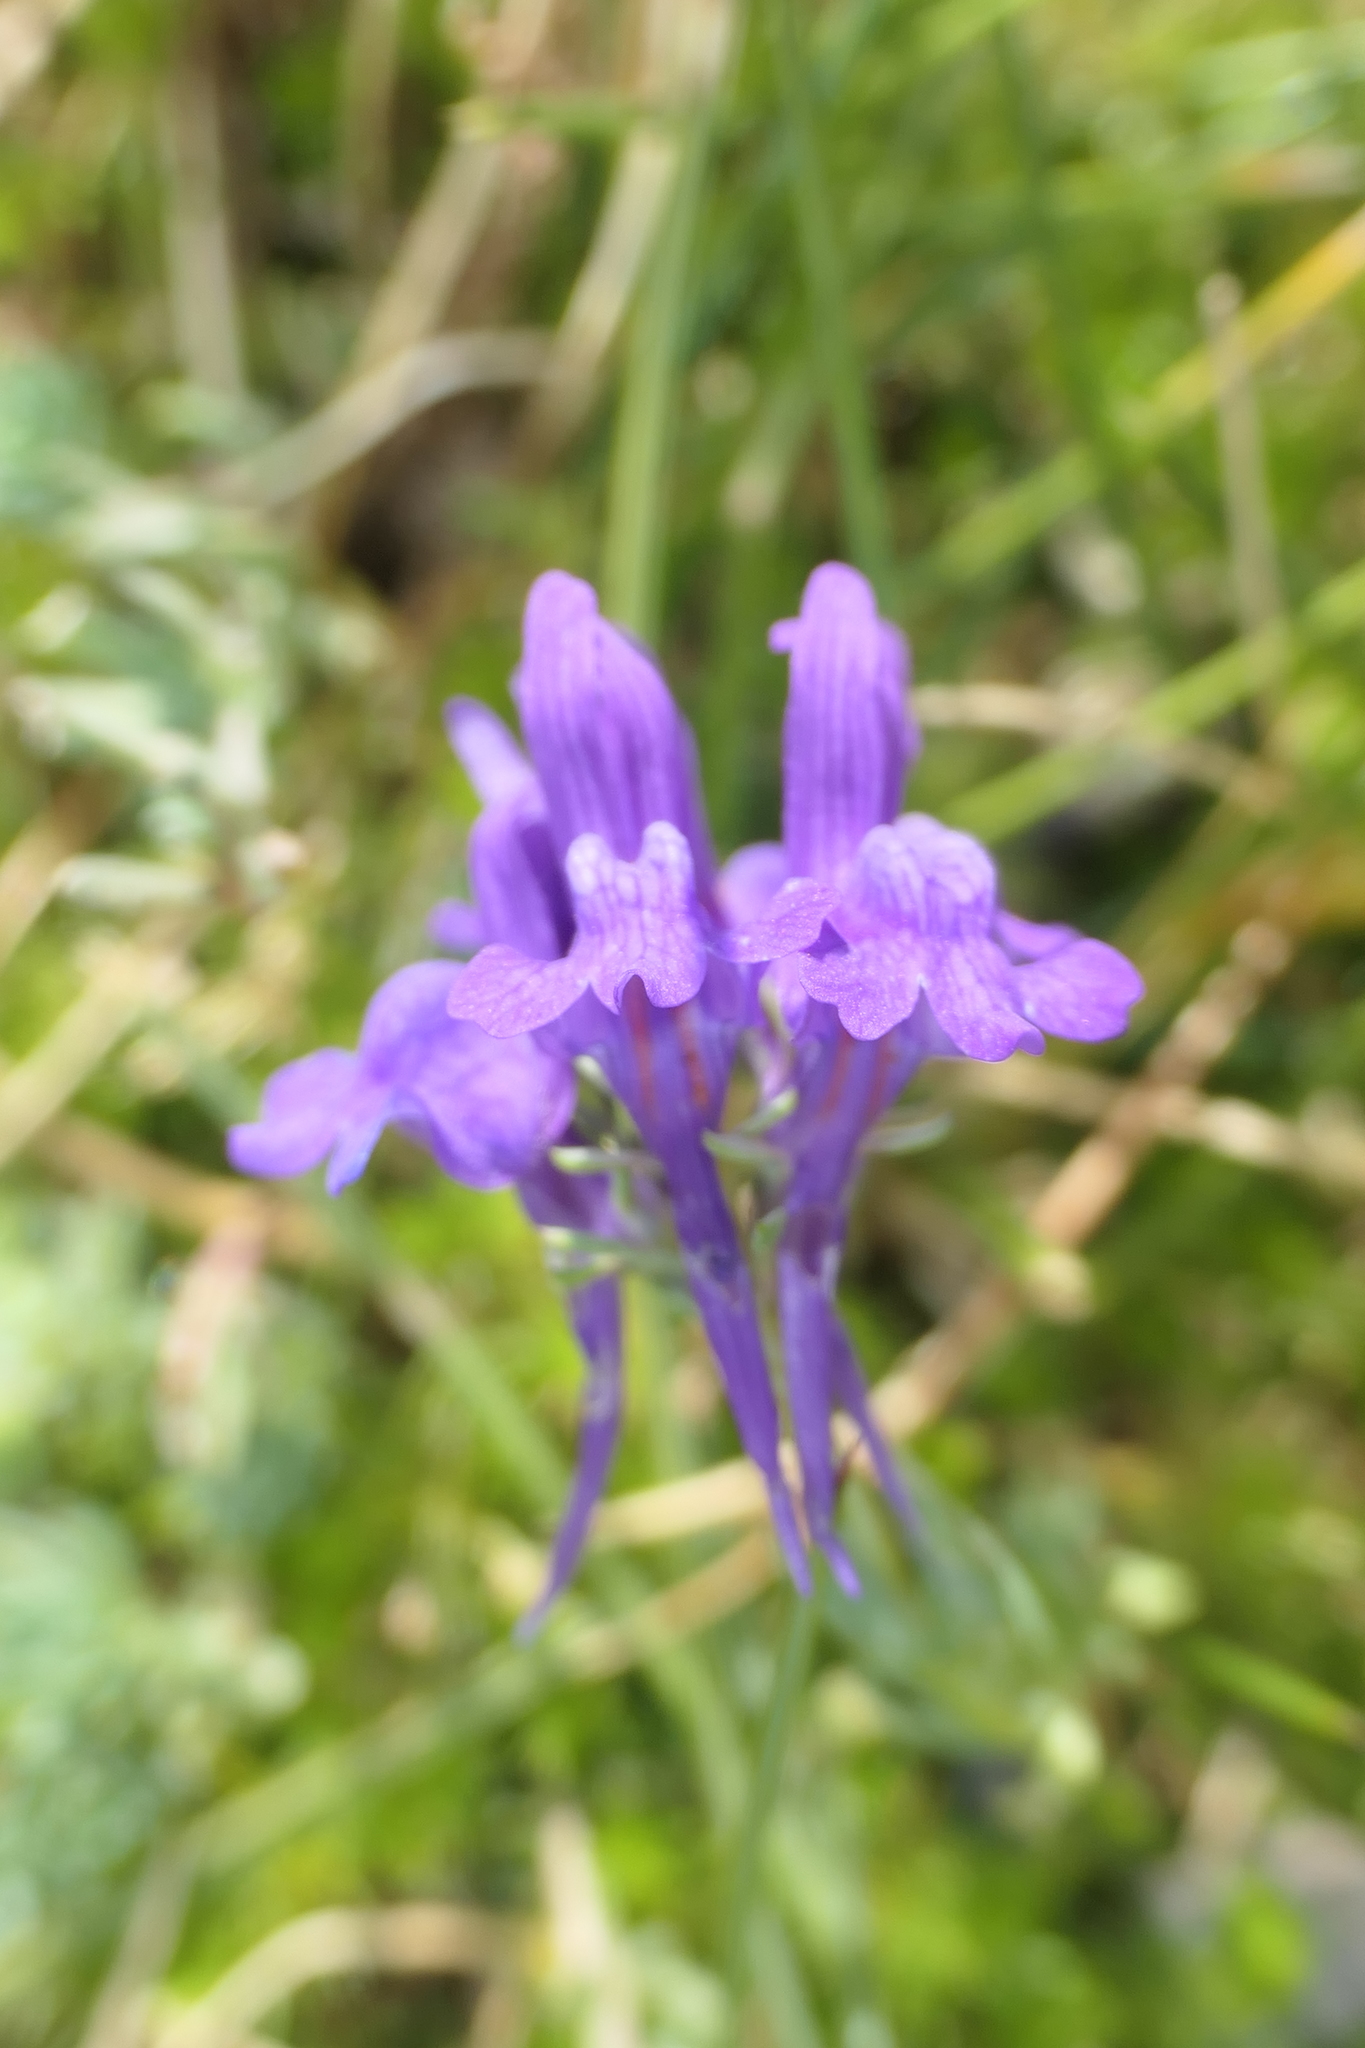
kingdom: Plantae
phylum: Tracheophyta
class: Magnoliopsida
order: Lamiales
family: Plantaginaceae
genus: Linaria
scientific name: Linaria alpina
